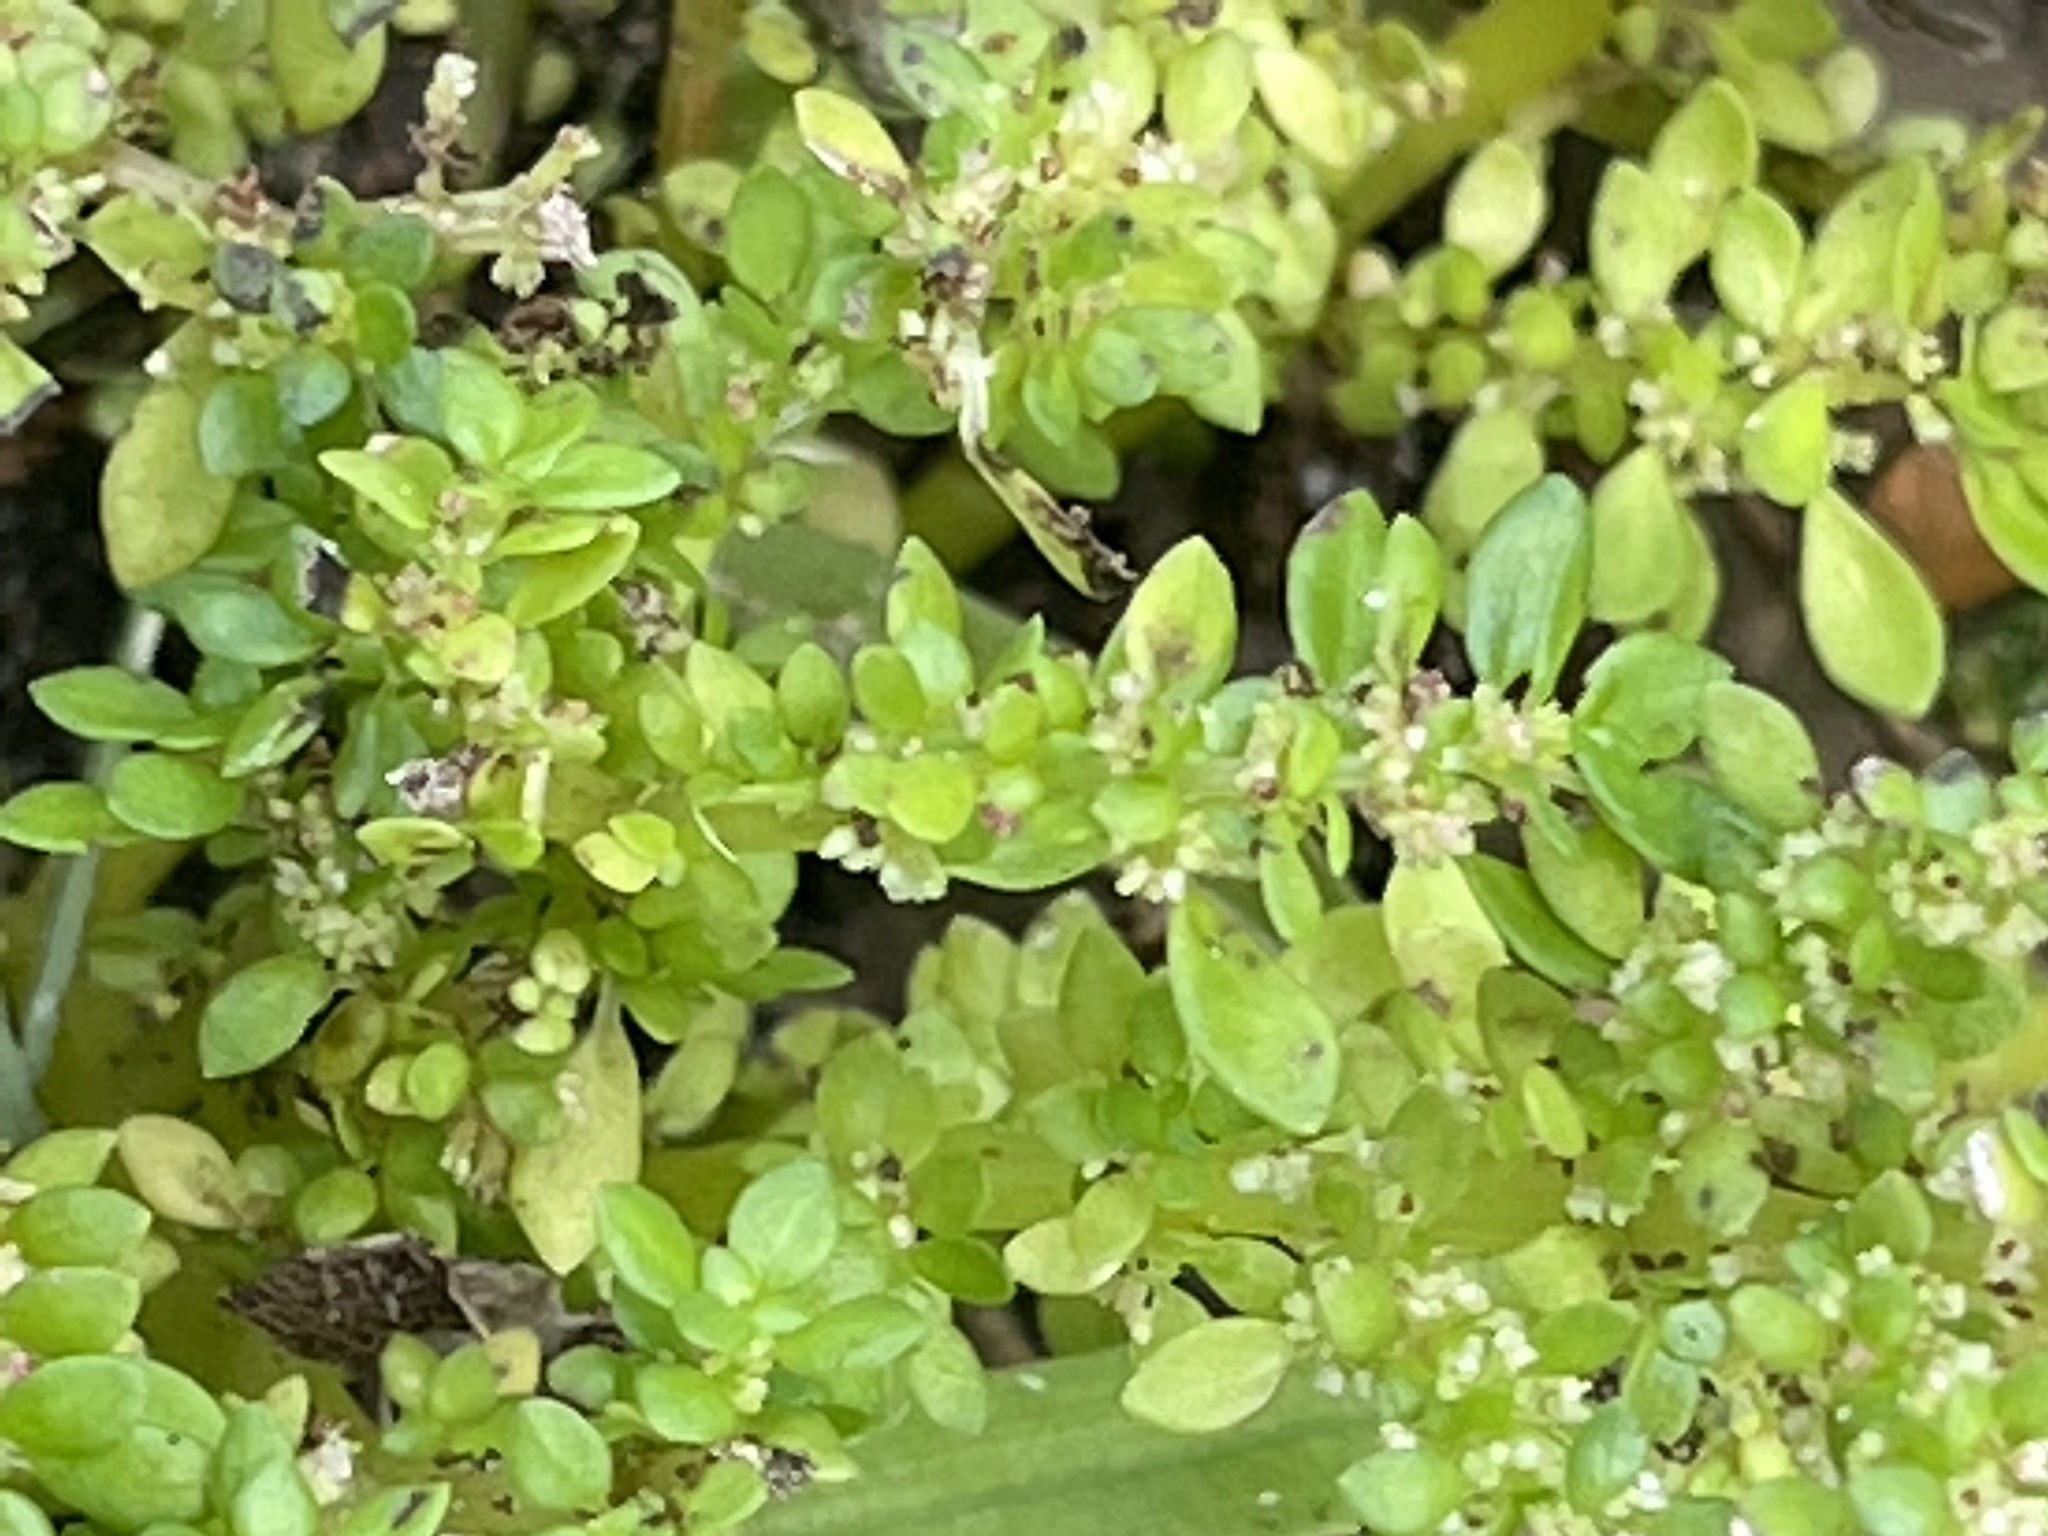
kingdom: Plantae
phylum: Tracheophyta
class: Magnoliopsida
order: Rosales
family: Urticaceae
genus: Pilea
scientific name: Pilea microphylla
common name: Artillery-plant
